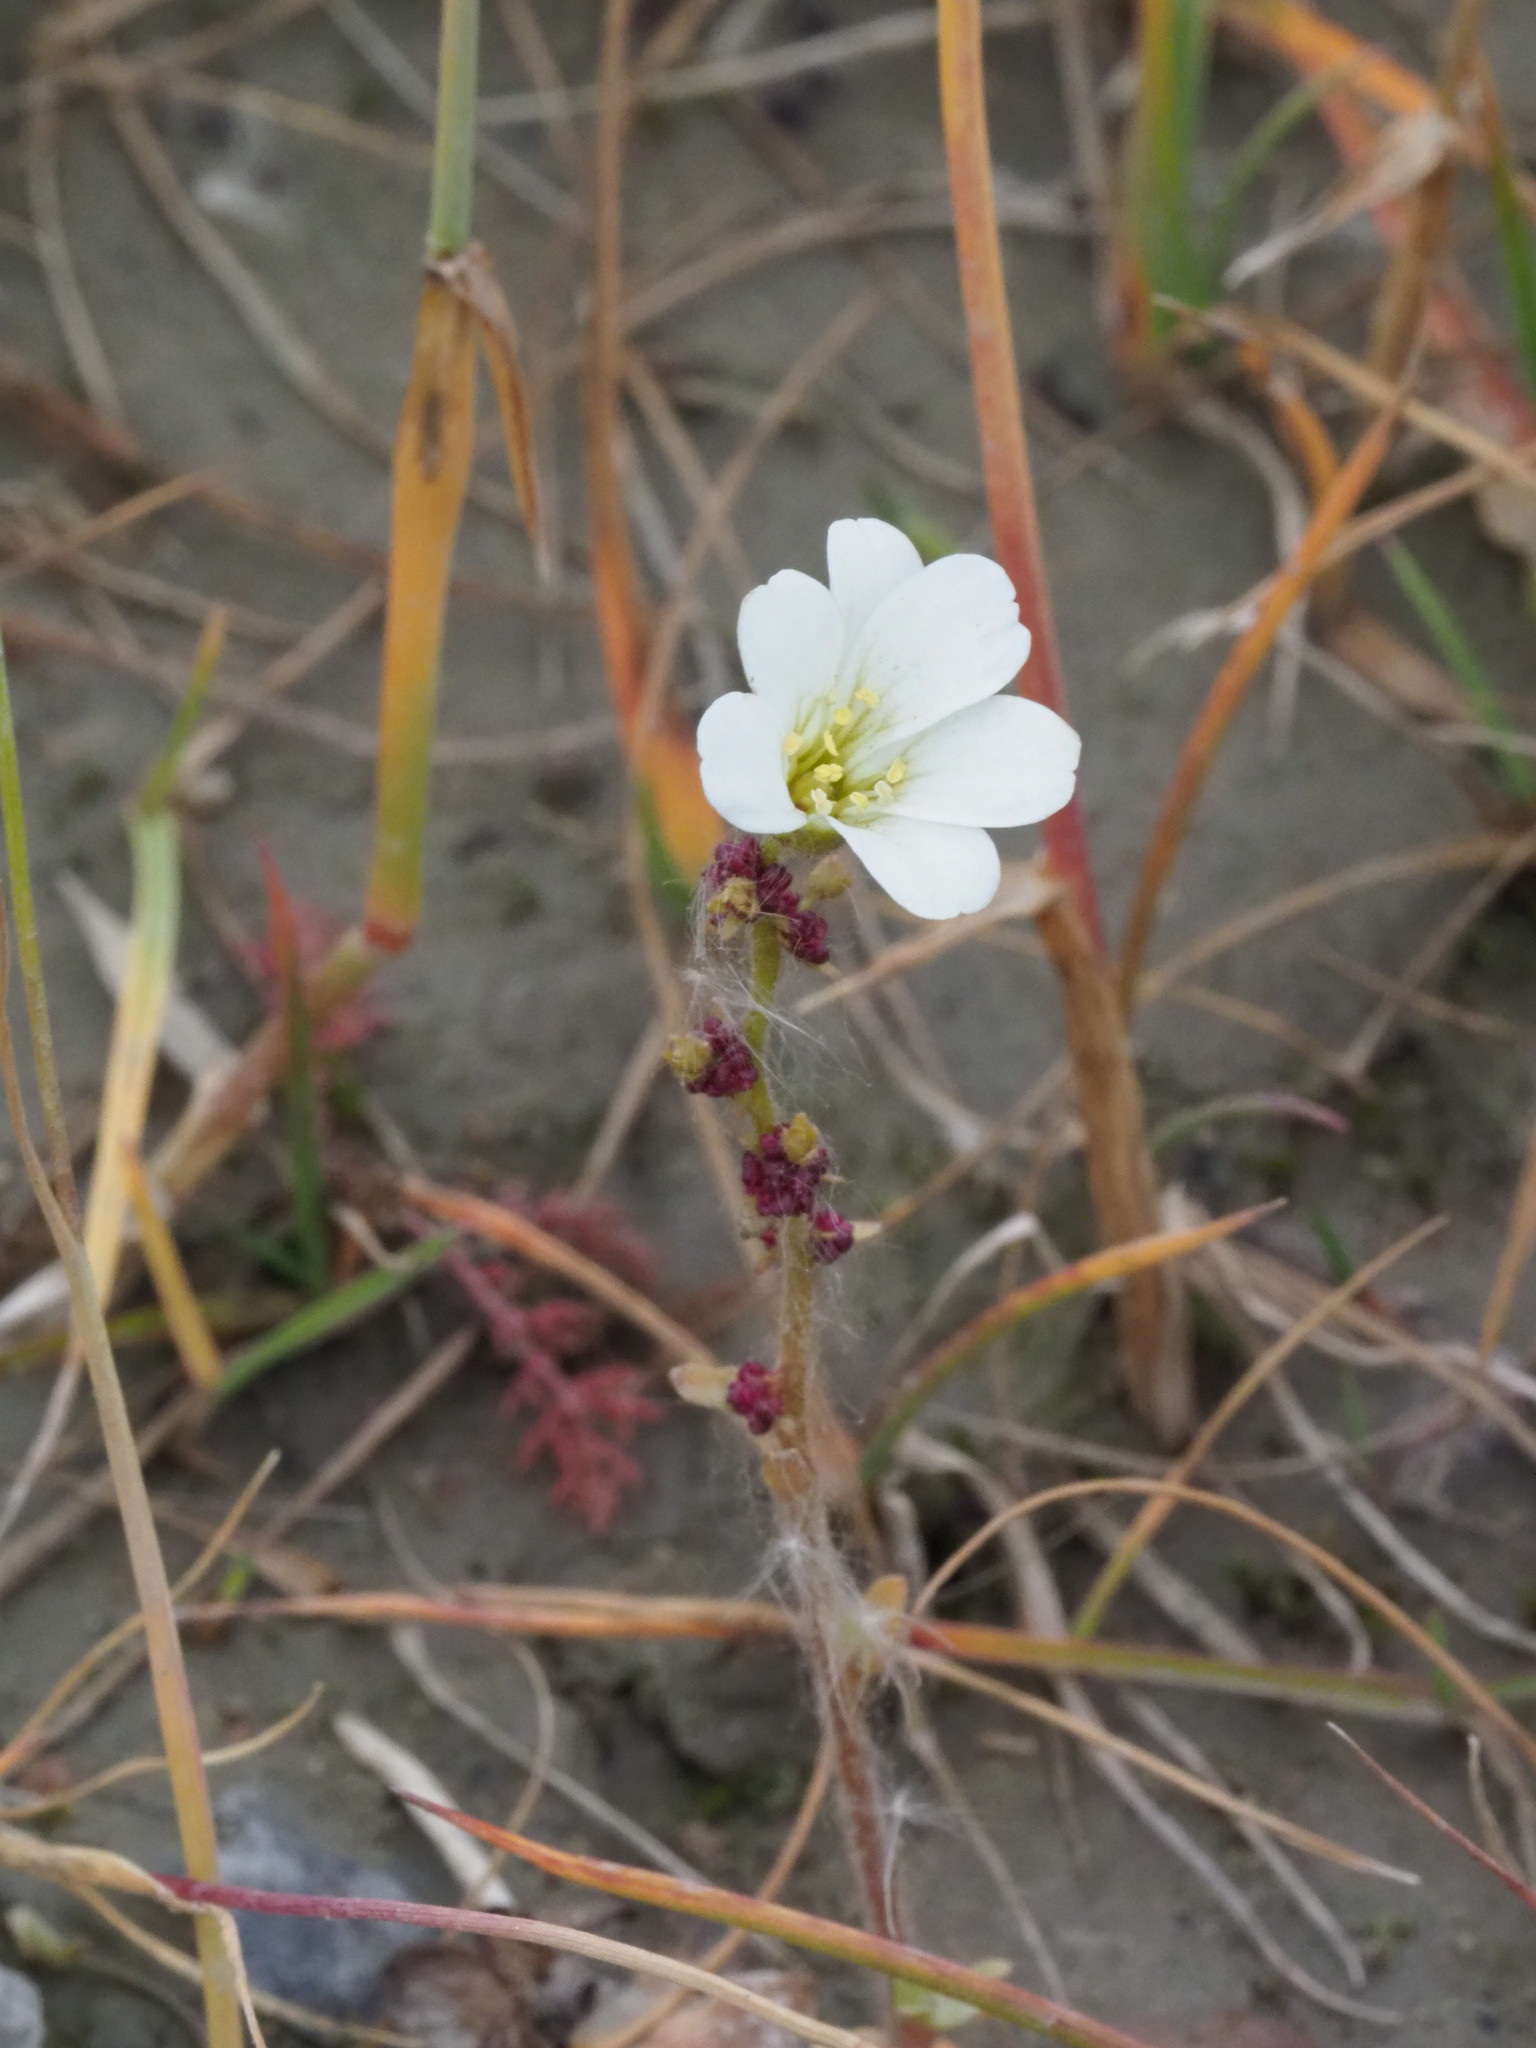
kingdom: Plantae
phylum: Tracheophyta
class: Magnoliopsida
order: Saxifragales
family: Saxifragaceae
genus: Saxifraga
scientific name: Saxifraga cernua
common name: Drooping saxifrage
